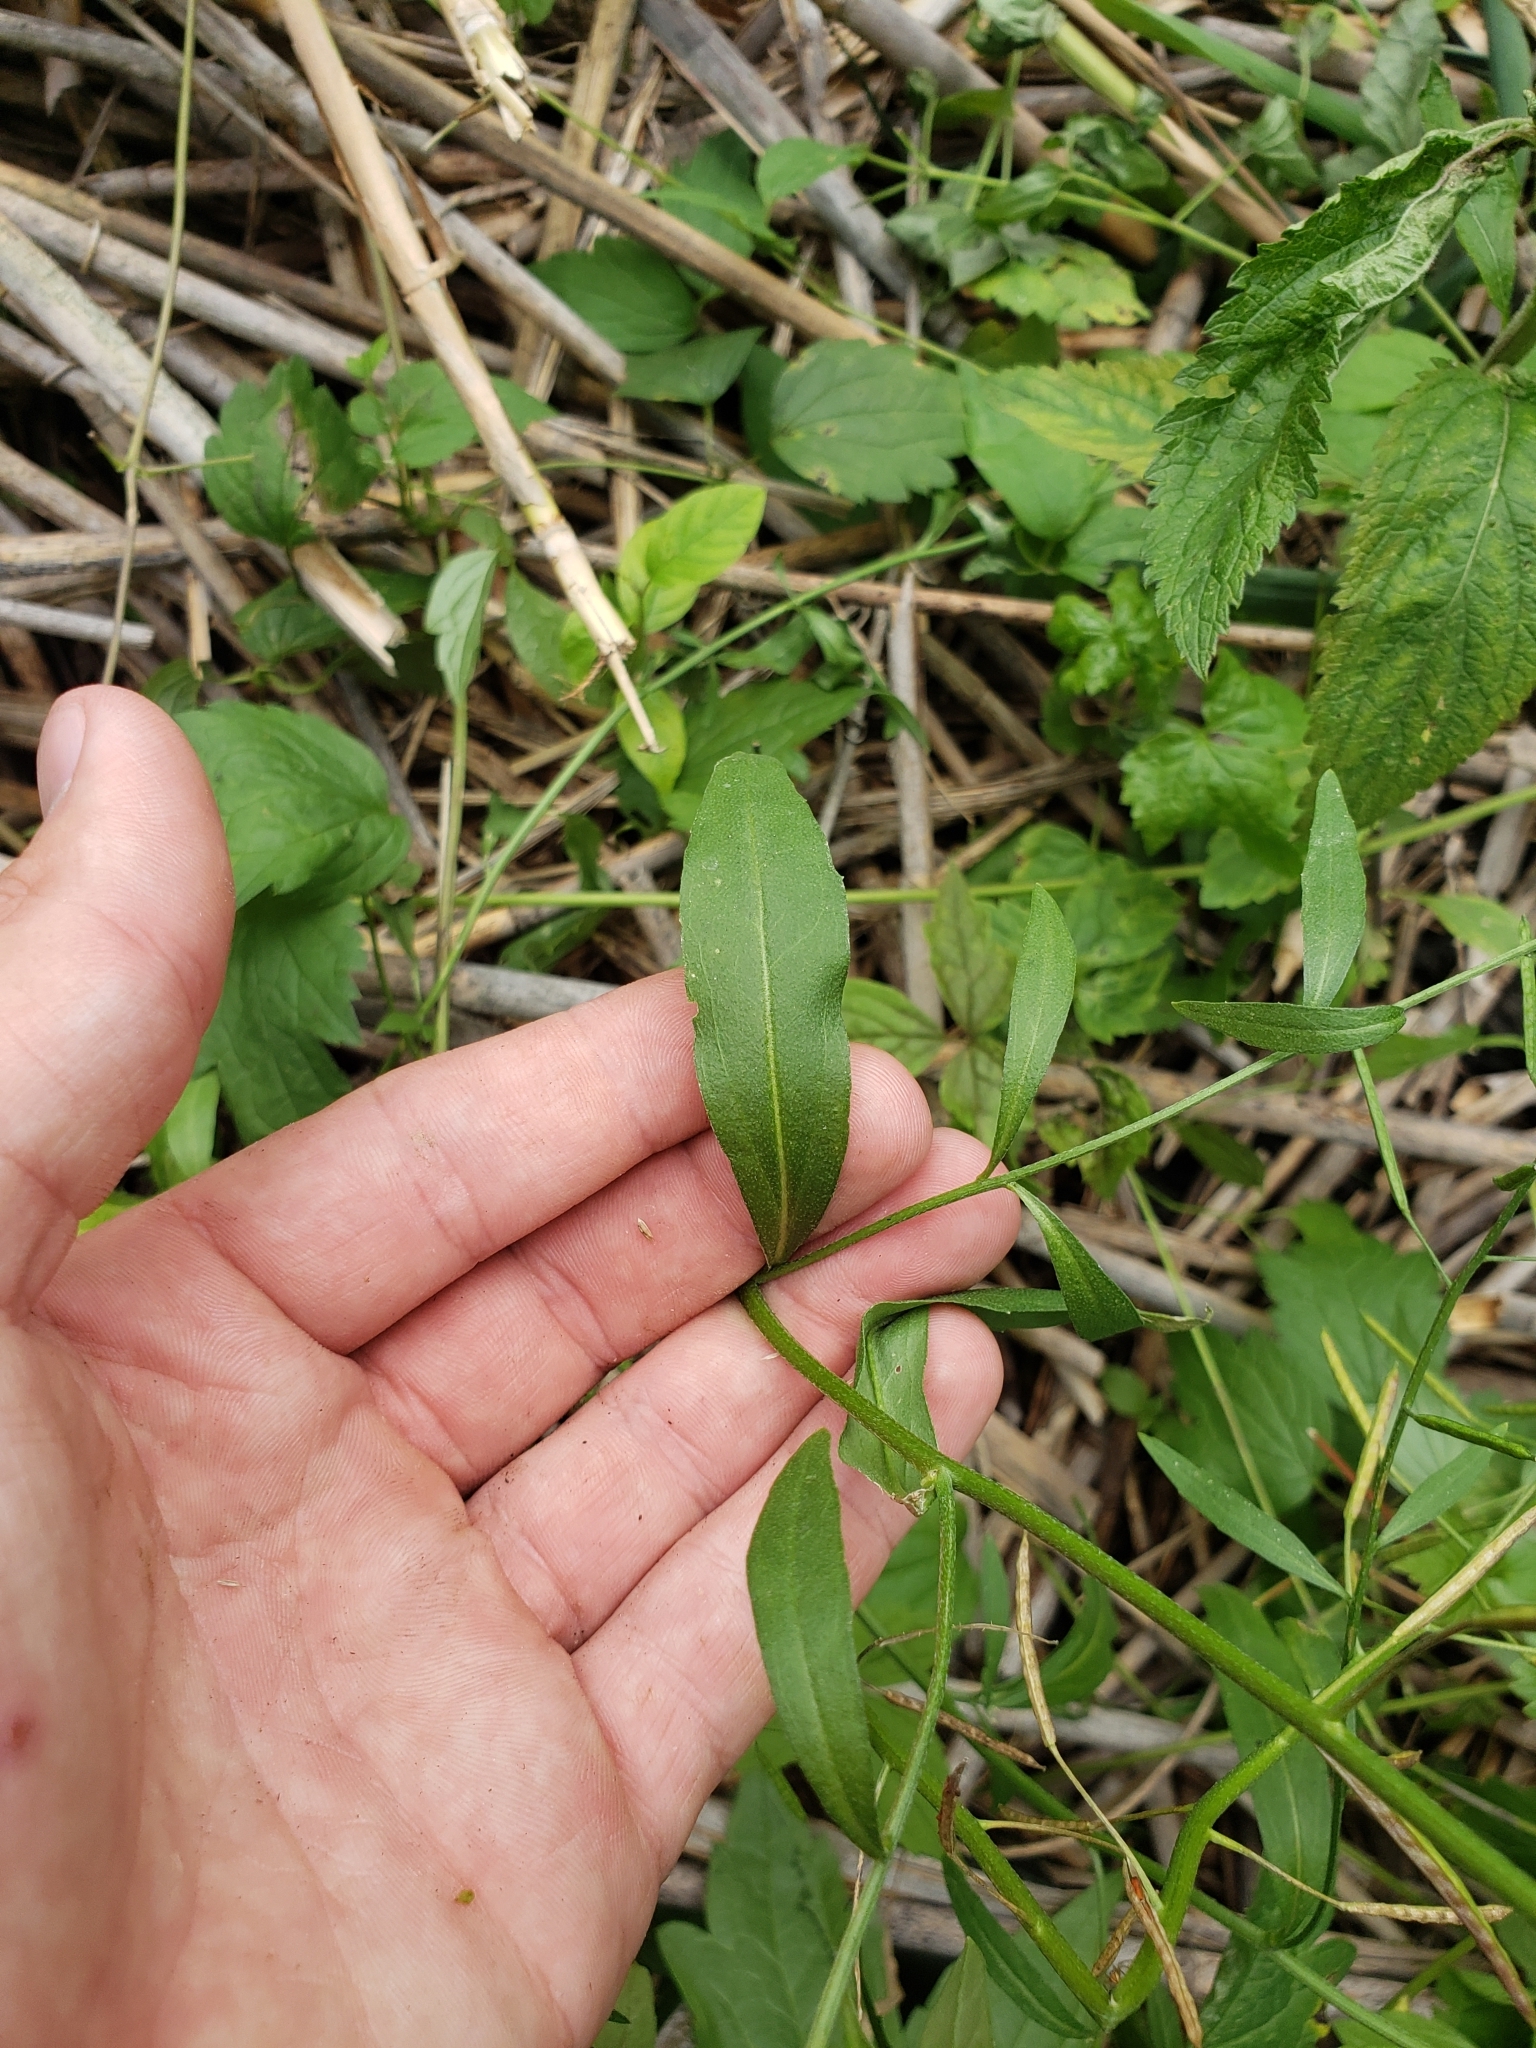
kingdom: Plantae
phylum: Tracheophyta
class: Magnoliopsida
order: Brassicales
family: Brassicaceae
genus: Hesperis
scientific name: Hesperis matronalis
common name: Dame's-violet
